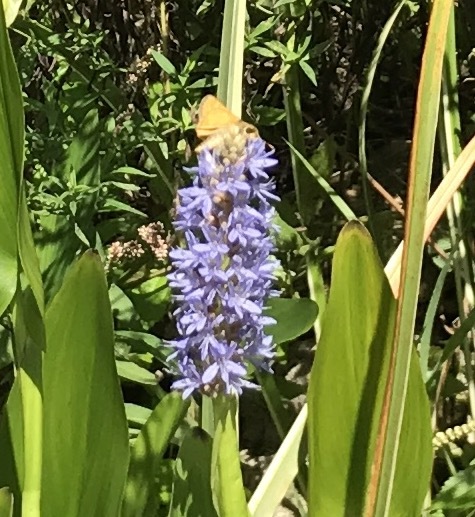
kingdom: Animalia
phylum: Arthropoda
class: Insecta
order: Lepidoptera
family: Hesperiidae
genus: Atalopedes
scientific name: Atalopedes
